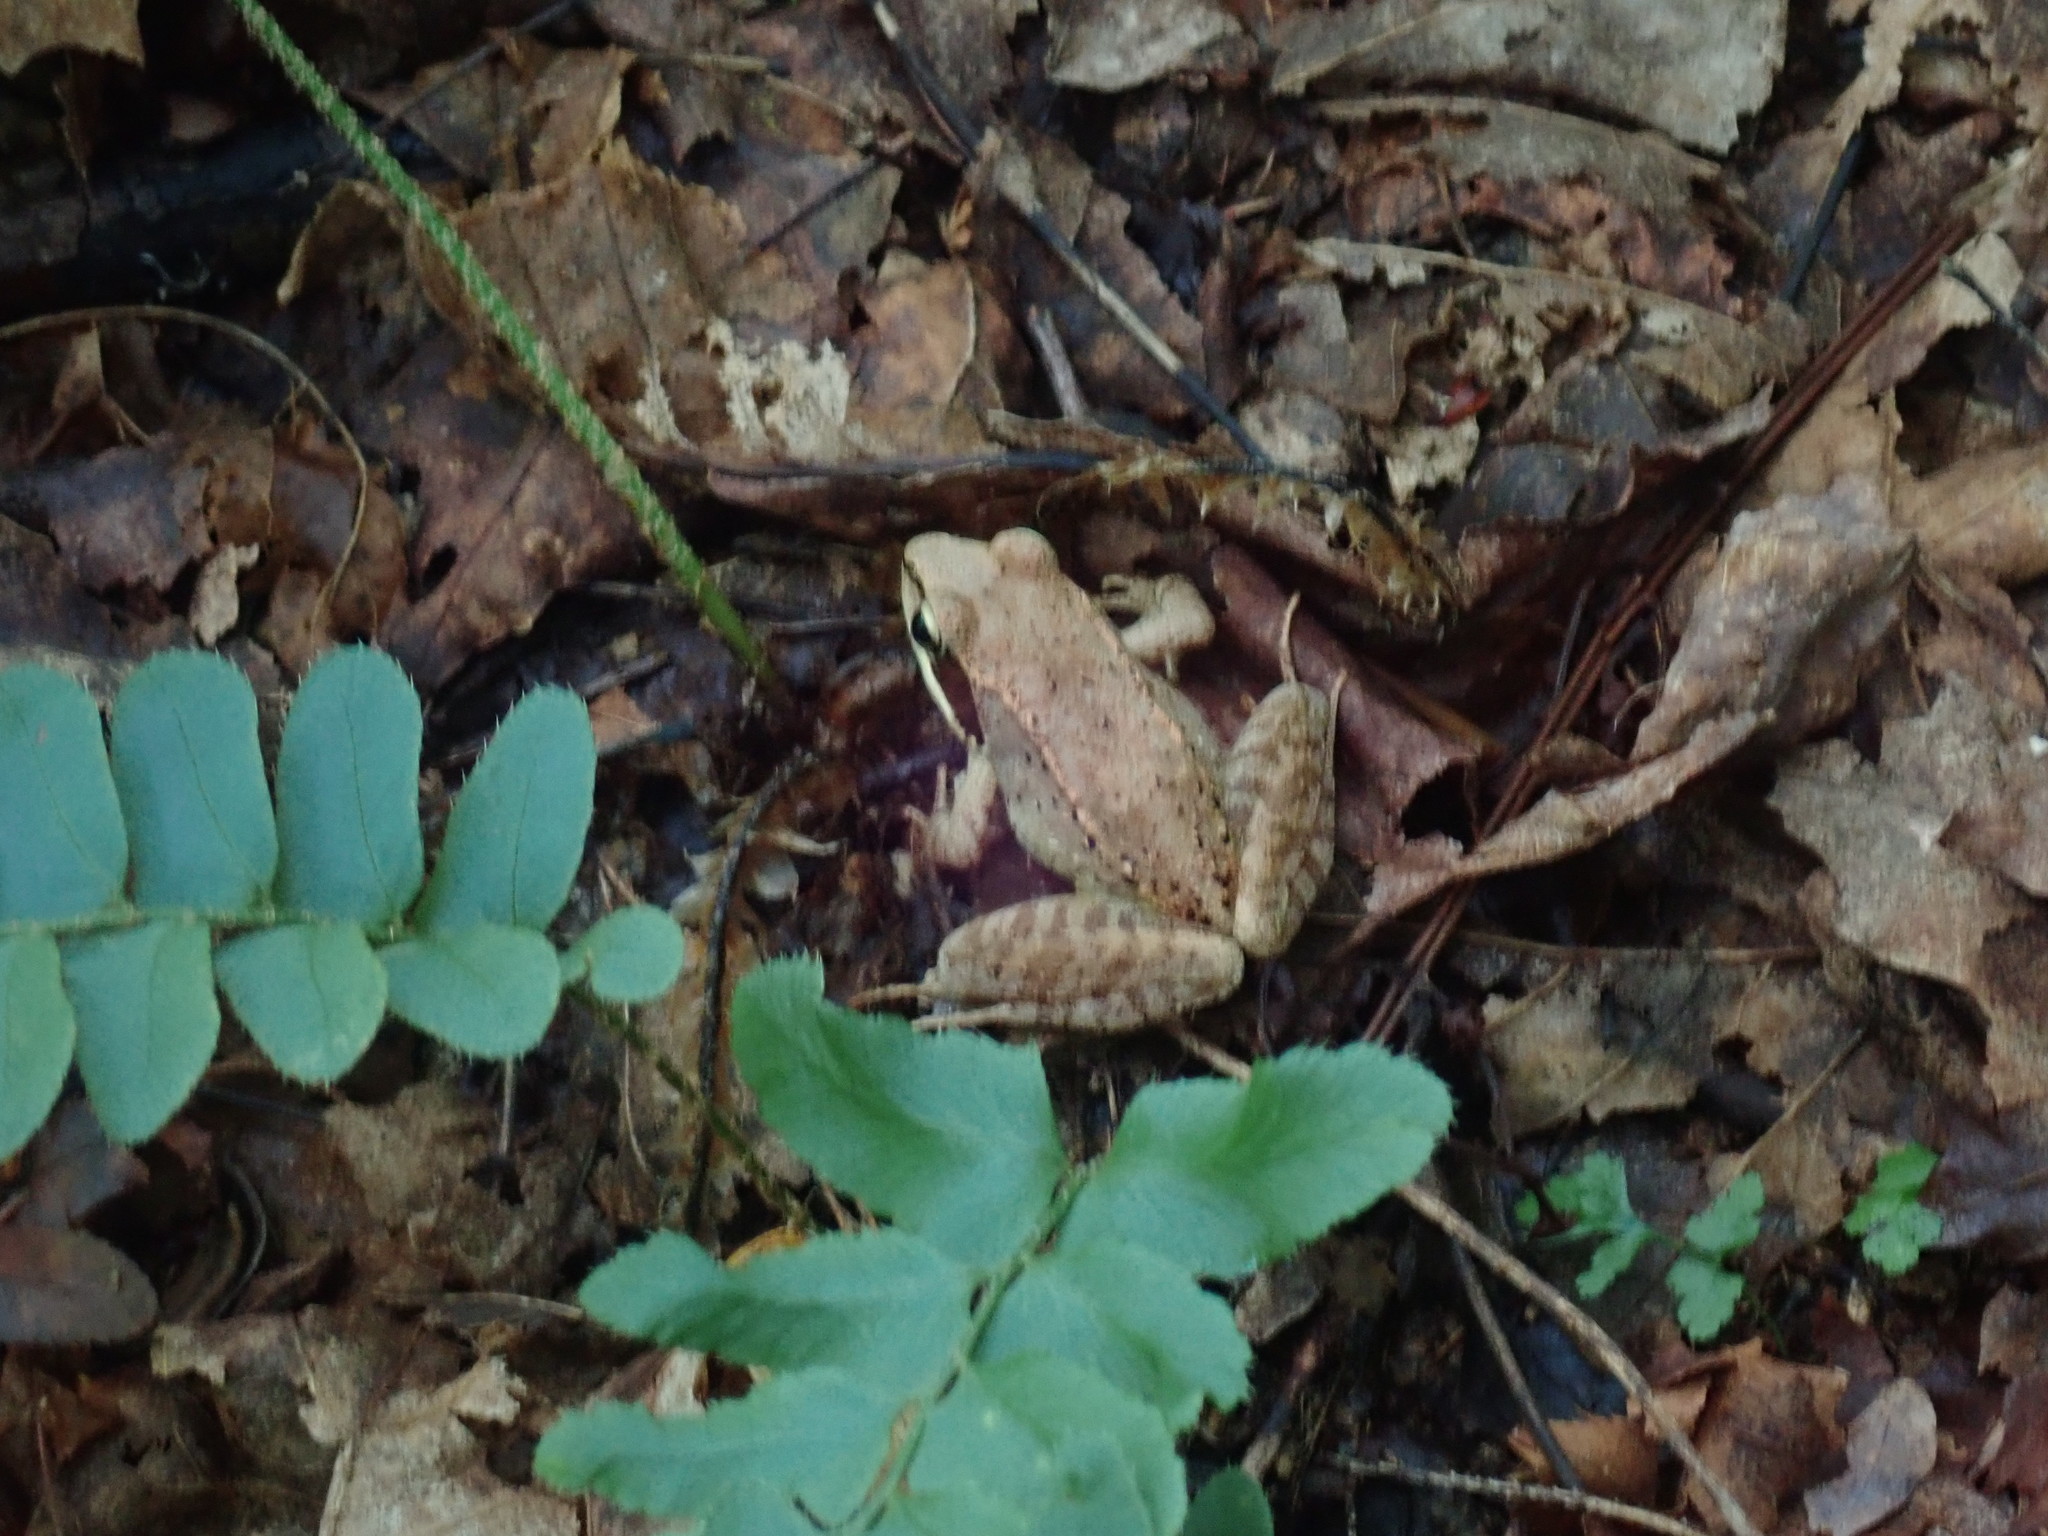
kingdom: Animalia
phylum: Chordata
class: Amphibia
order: Anura
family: Ranidae
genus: Lithobates
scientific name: Lithobates sylvaticus
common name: Wood frog
